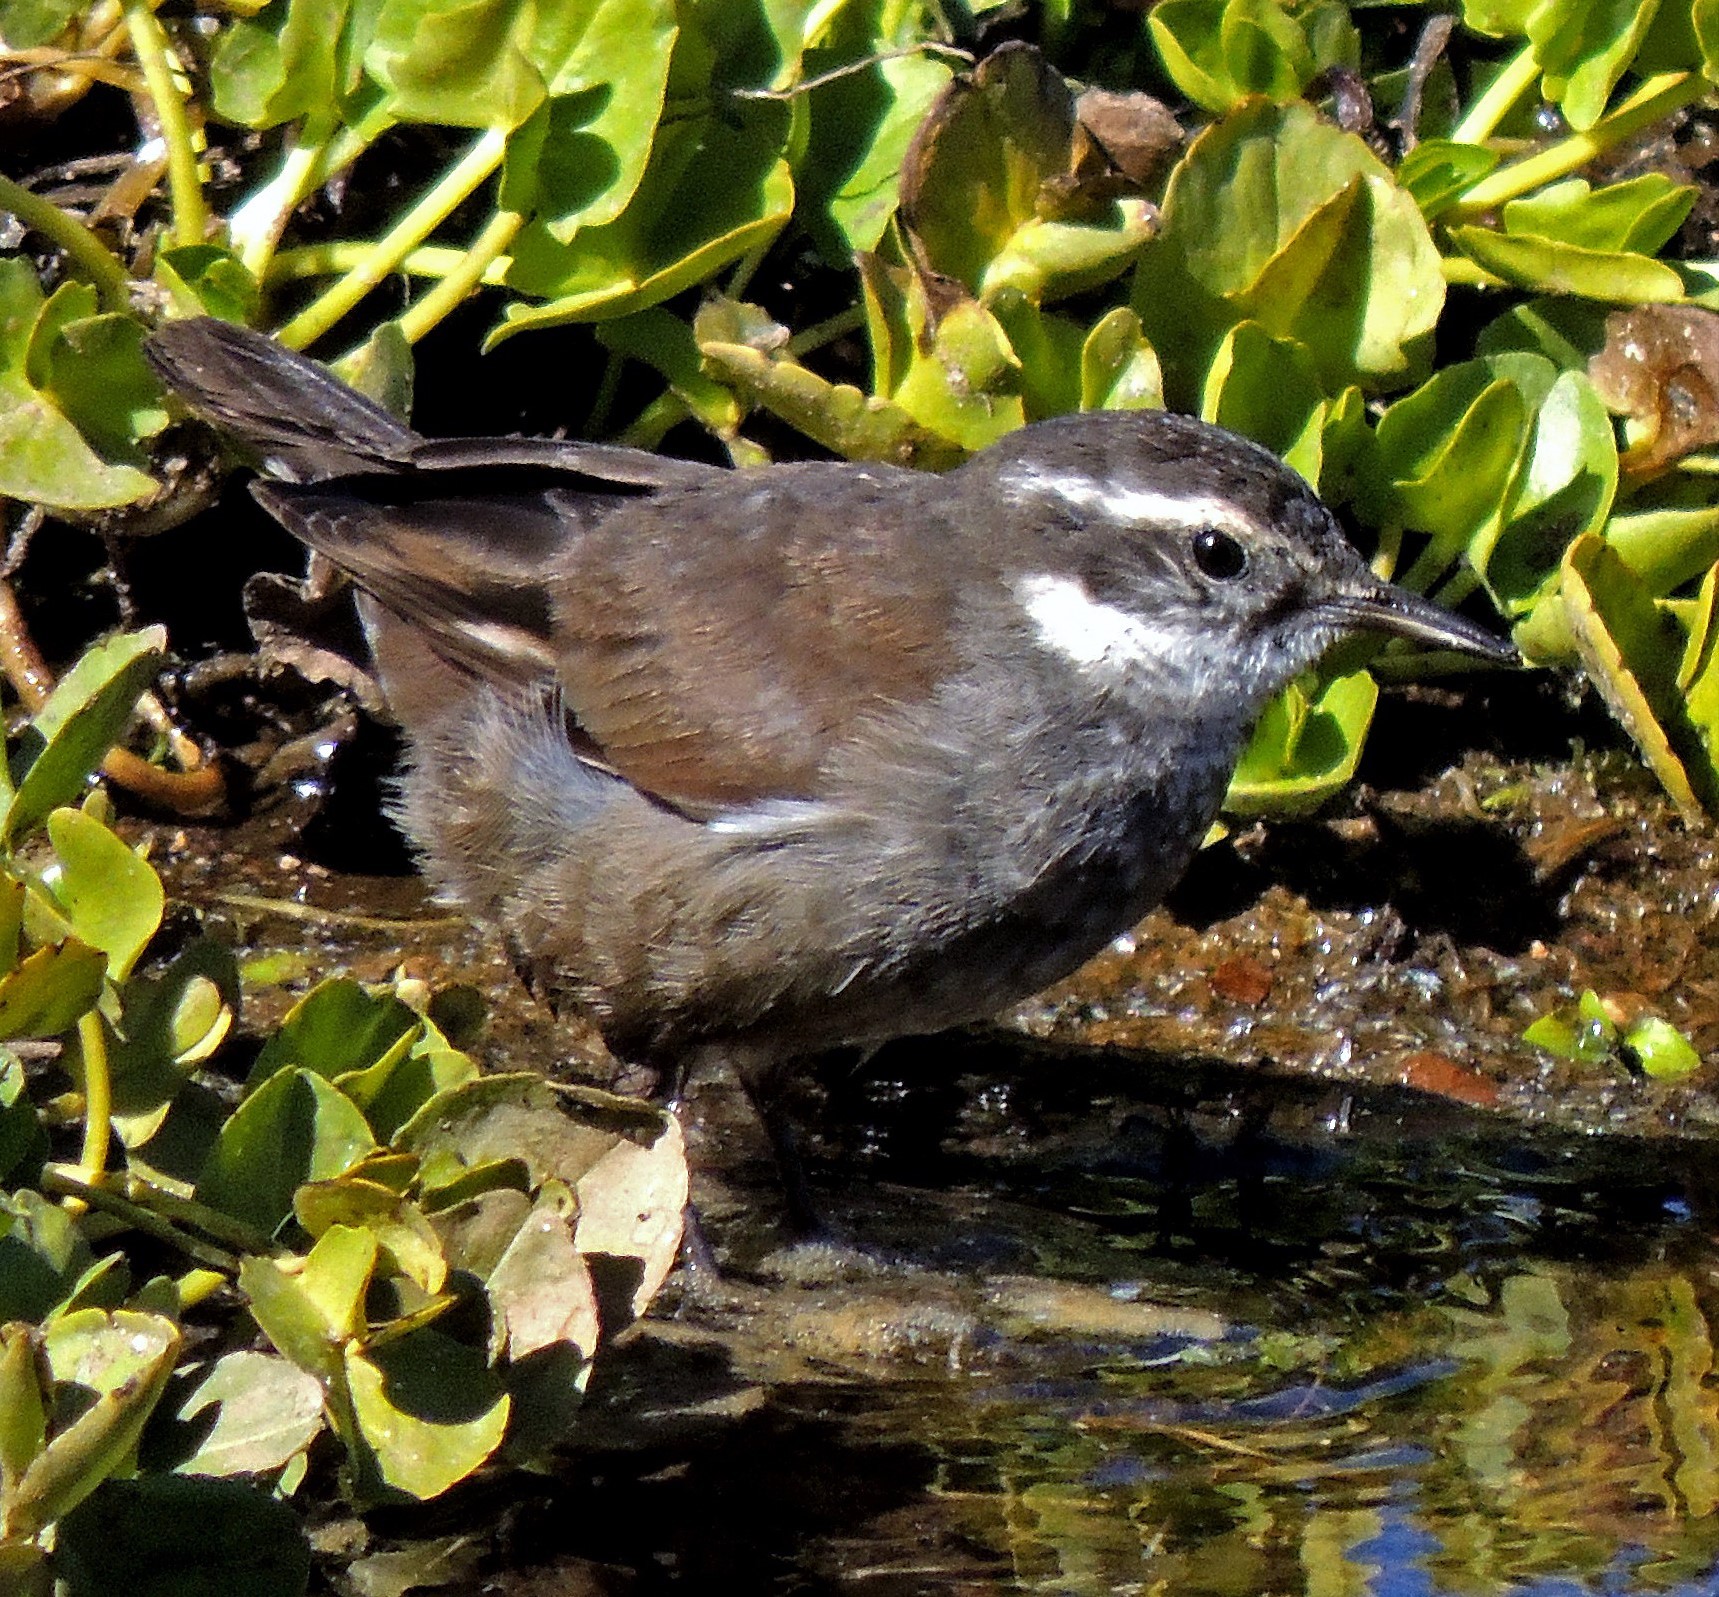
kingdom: Animalia
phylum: Chordata
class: Aves
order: Passeriformes
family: Furnariidae
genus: Cinclodes
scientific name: Cinclodes oustaleti
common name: Grey-flanked cinclodes
